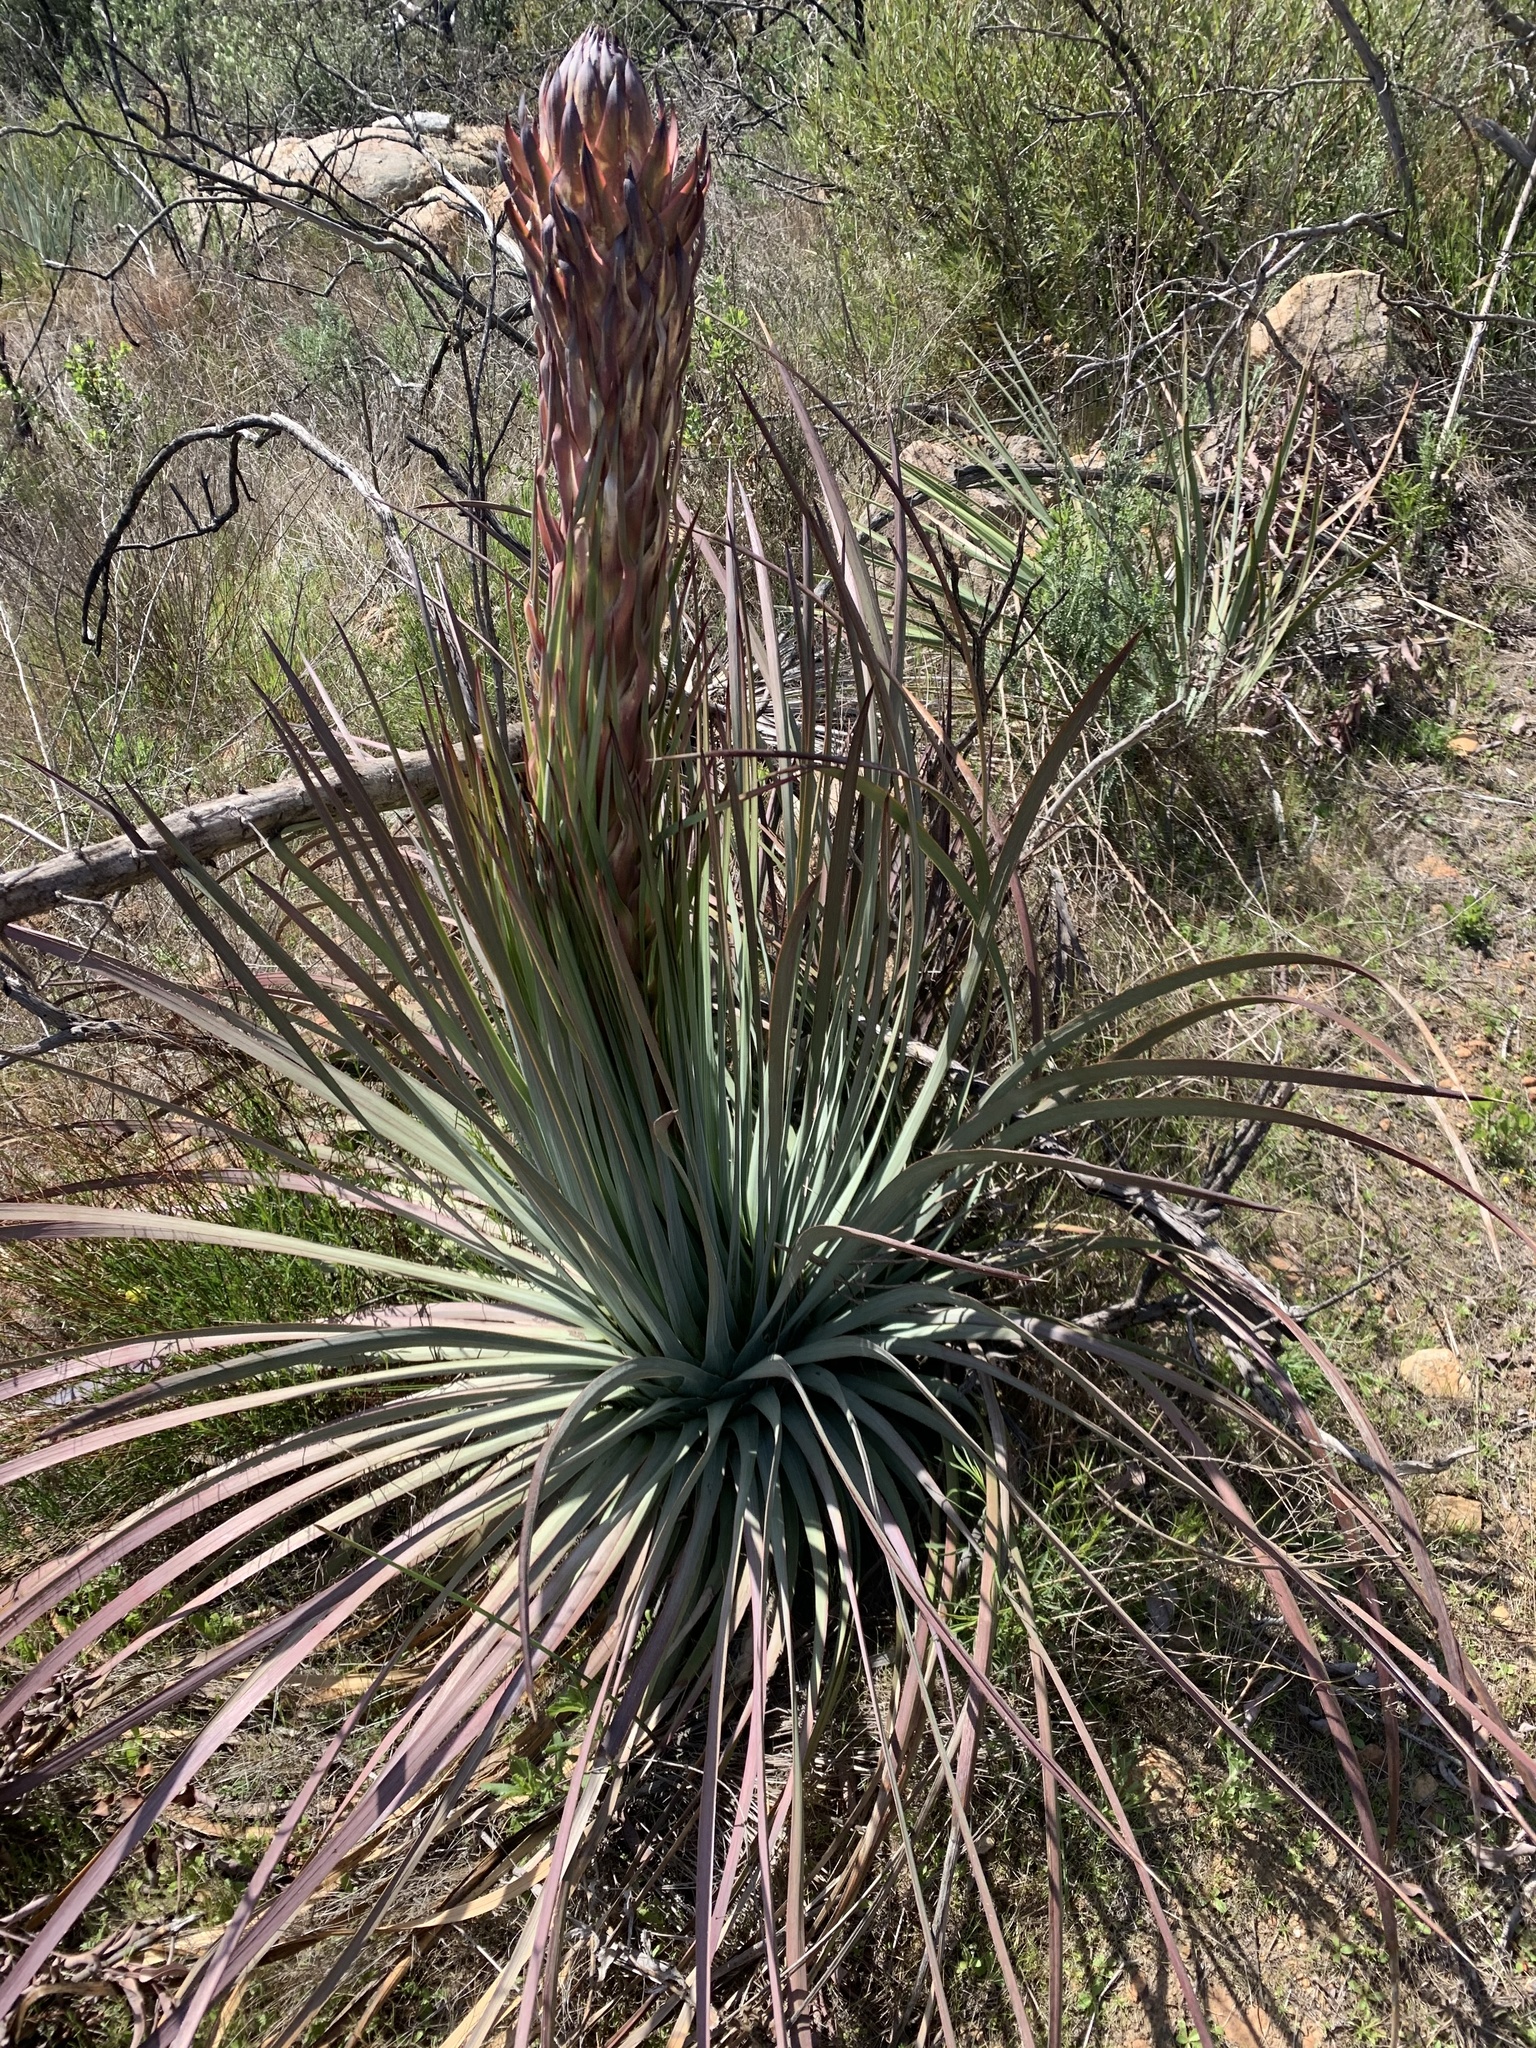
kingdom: Plantae
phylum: Tracheophyta
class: Liliopsida
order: Asparagales
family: Asparagaceae
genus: Hesperoyucca
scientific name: Hesperoyucca whipplei
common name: Our lord's-candle
